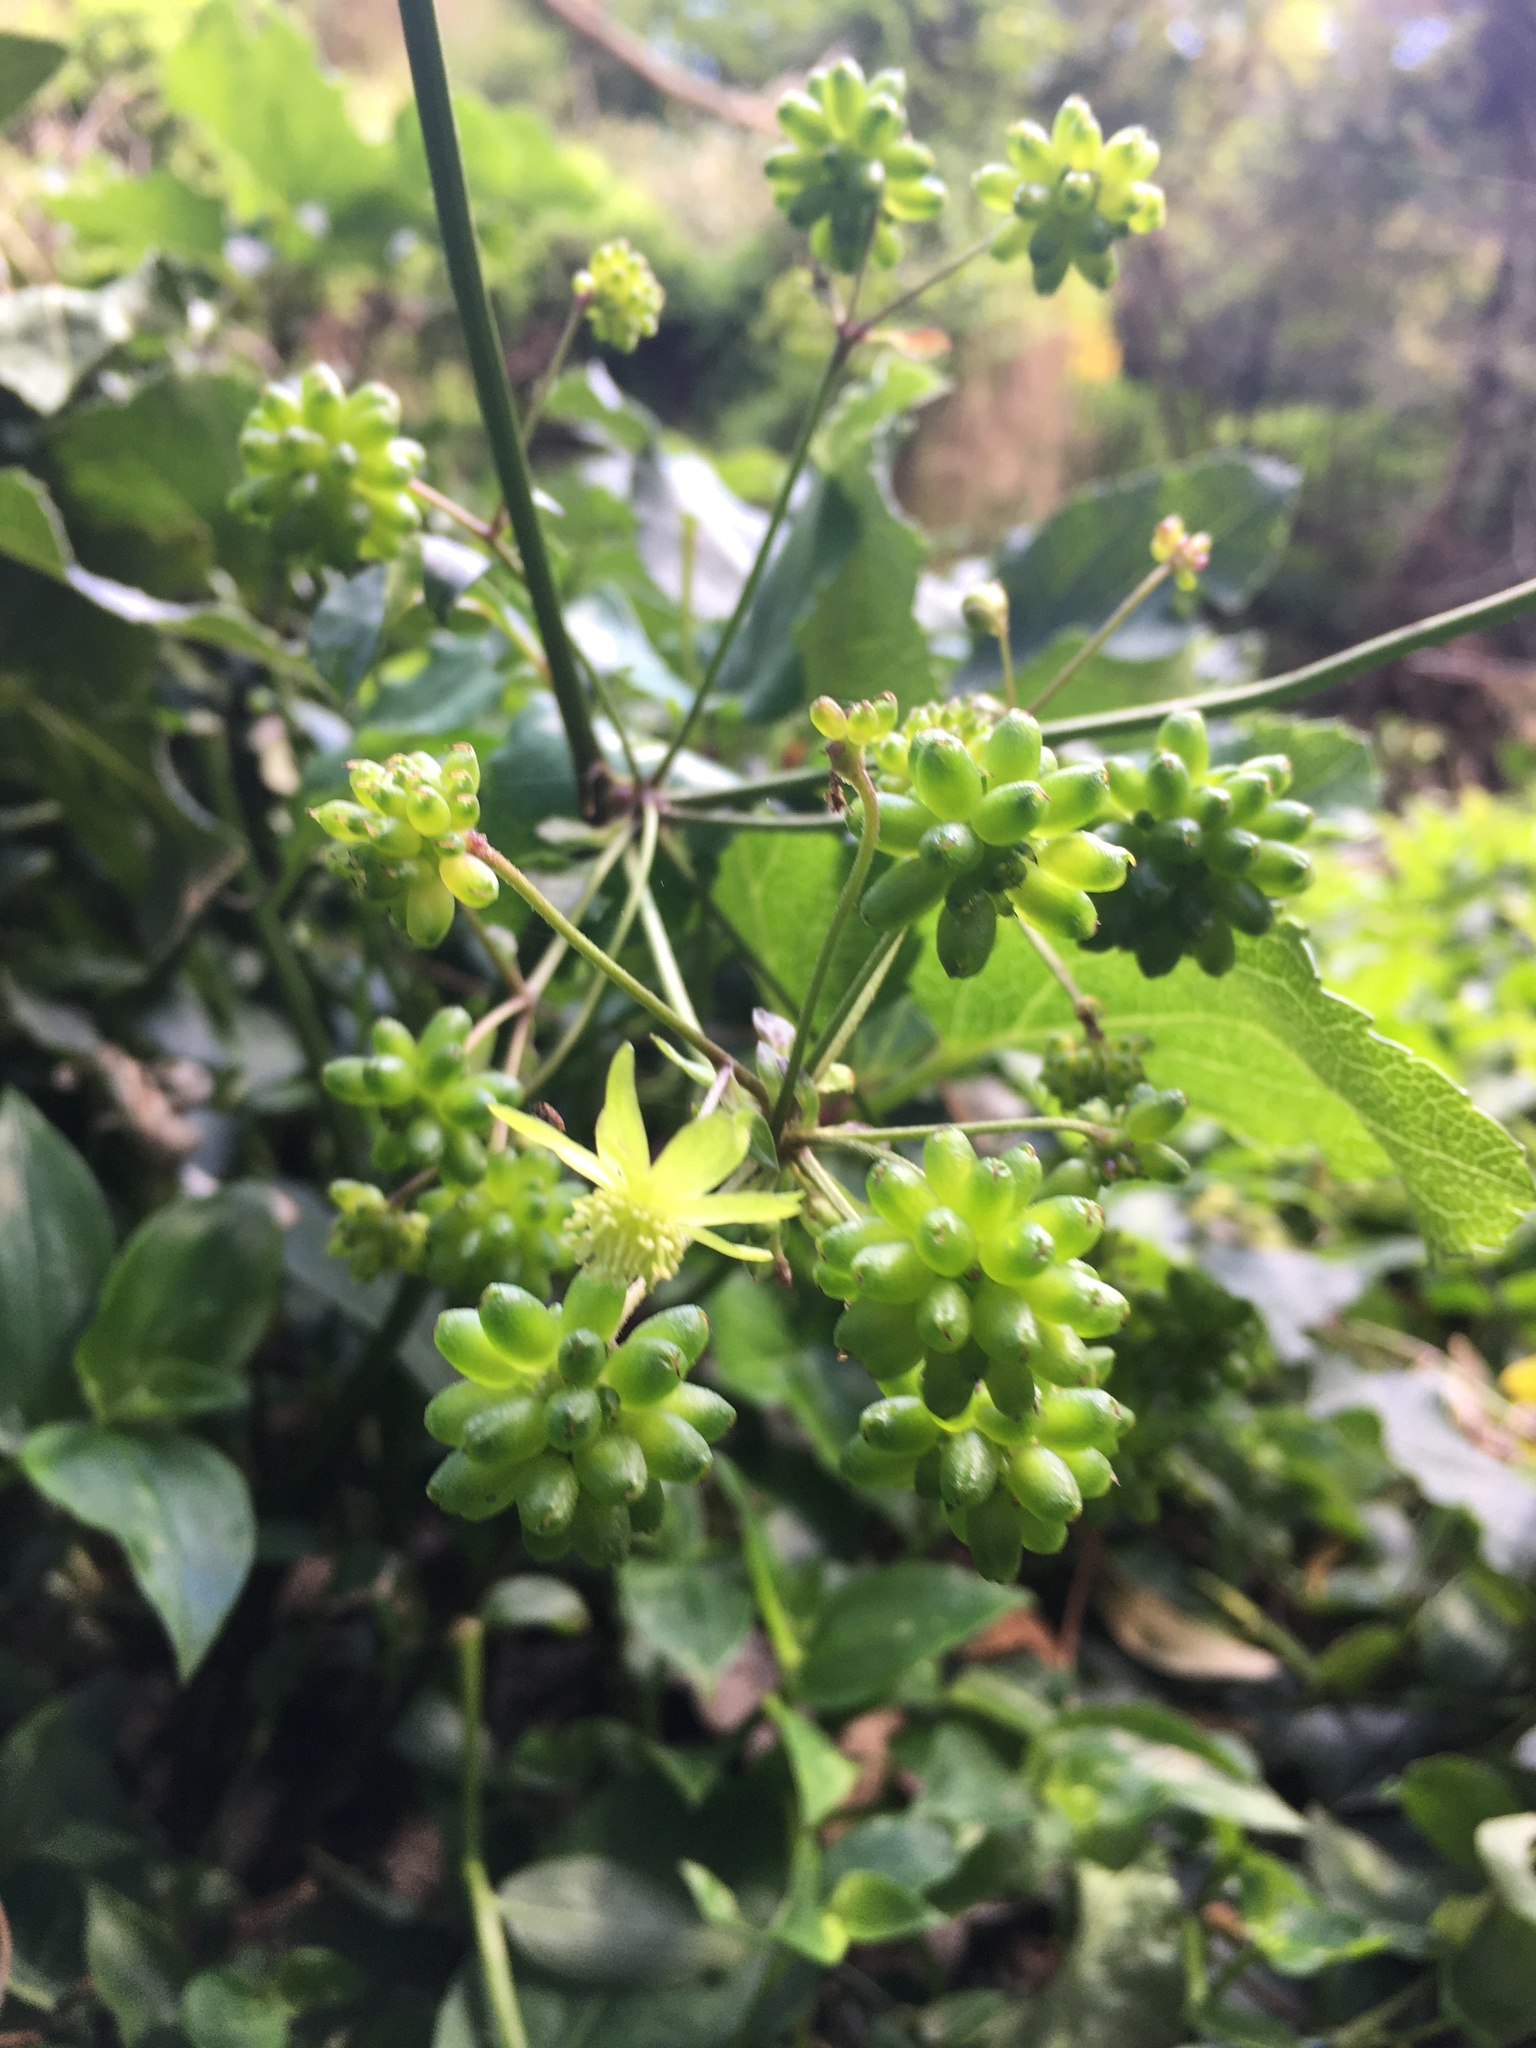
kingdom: Plantae
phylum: Tracheophyta
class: Magnoliopsida
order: Ranunculales
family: Ranunculaceae
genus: Knowltonia
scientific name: Knowltonia vesicatoria
